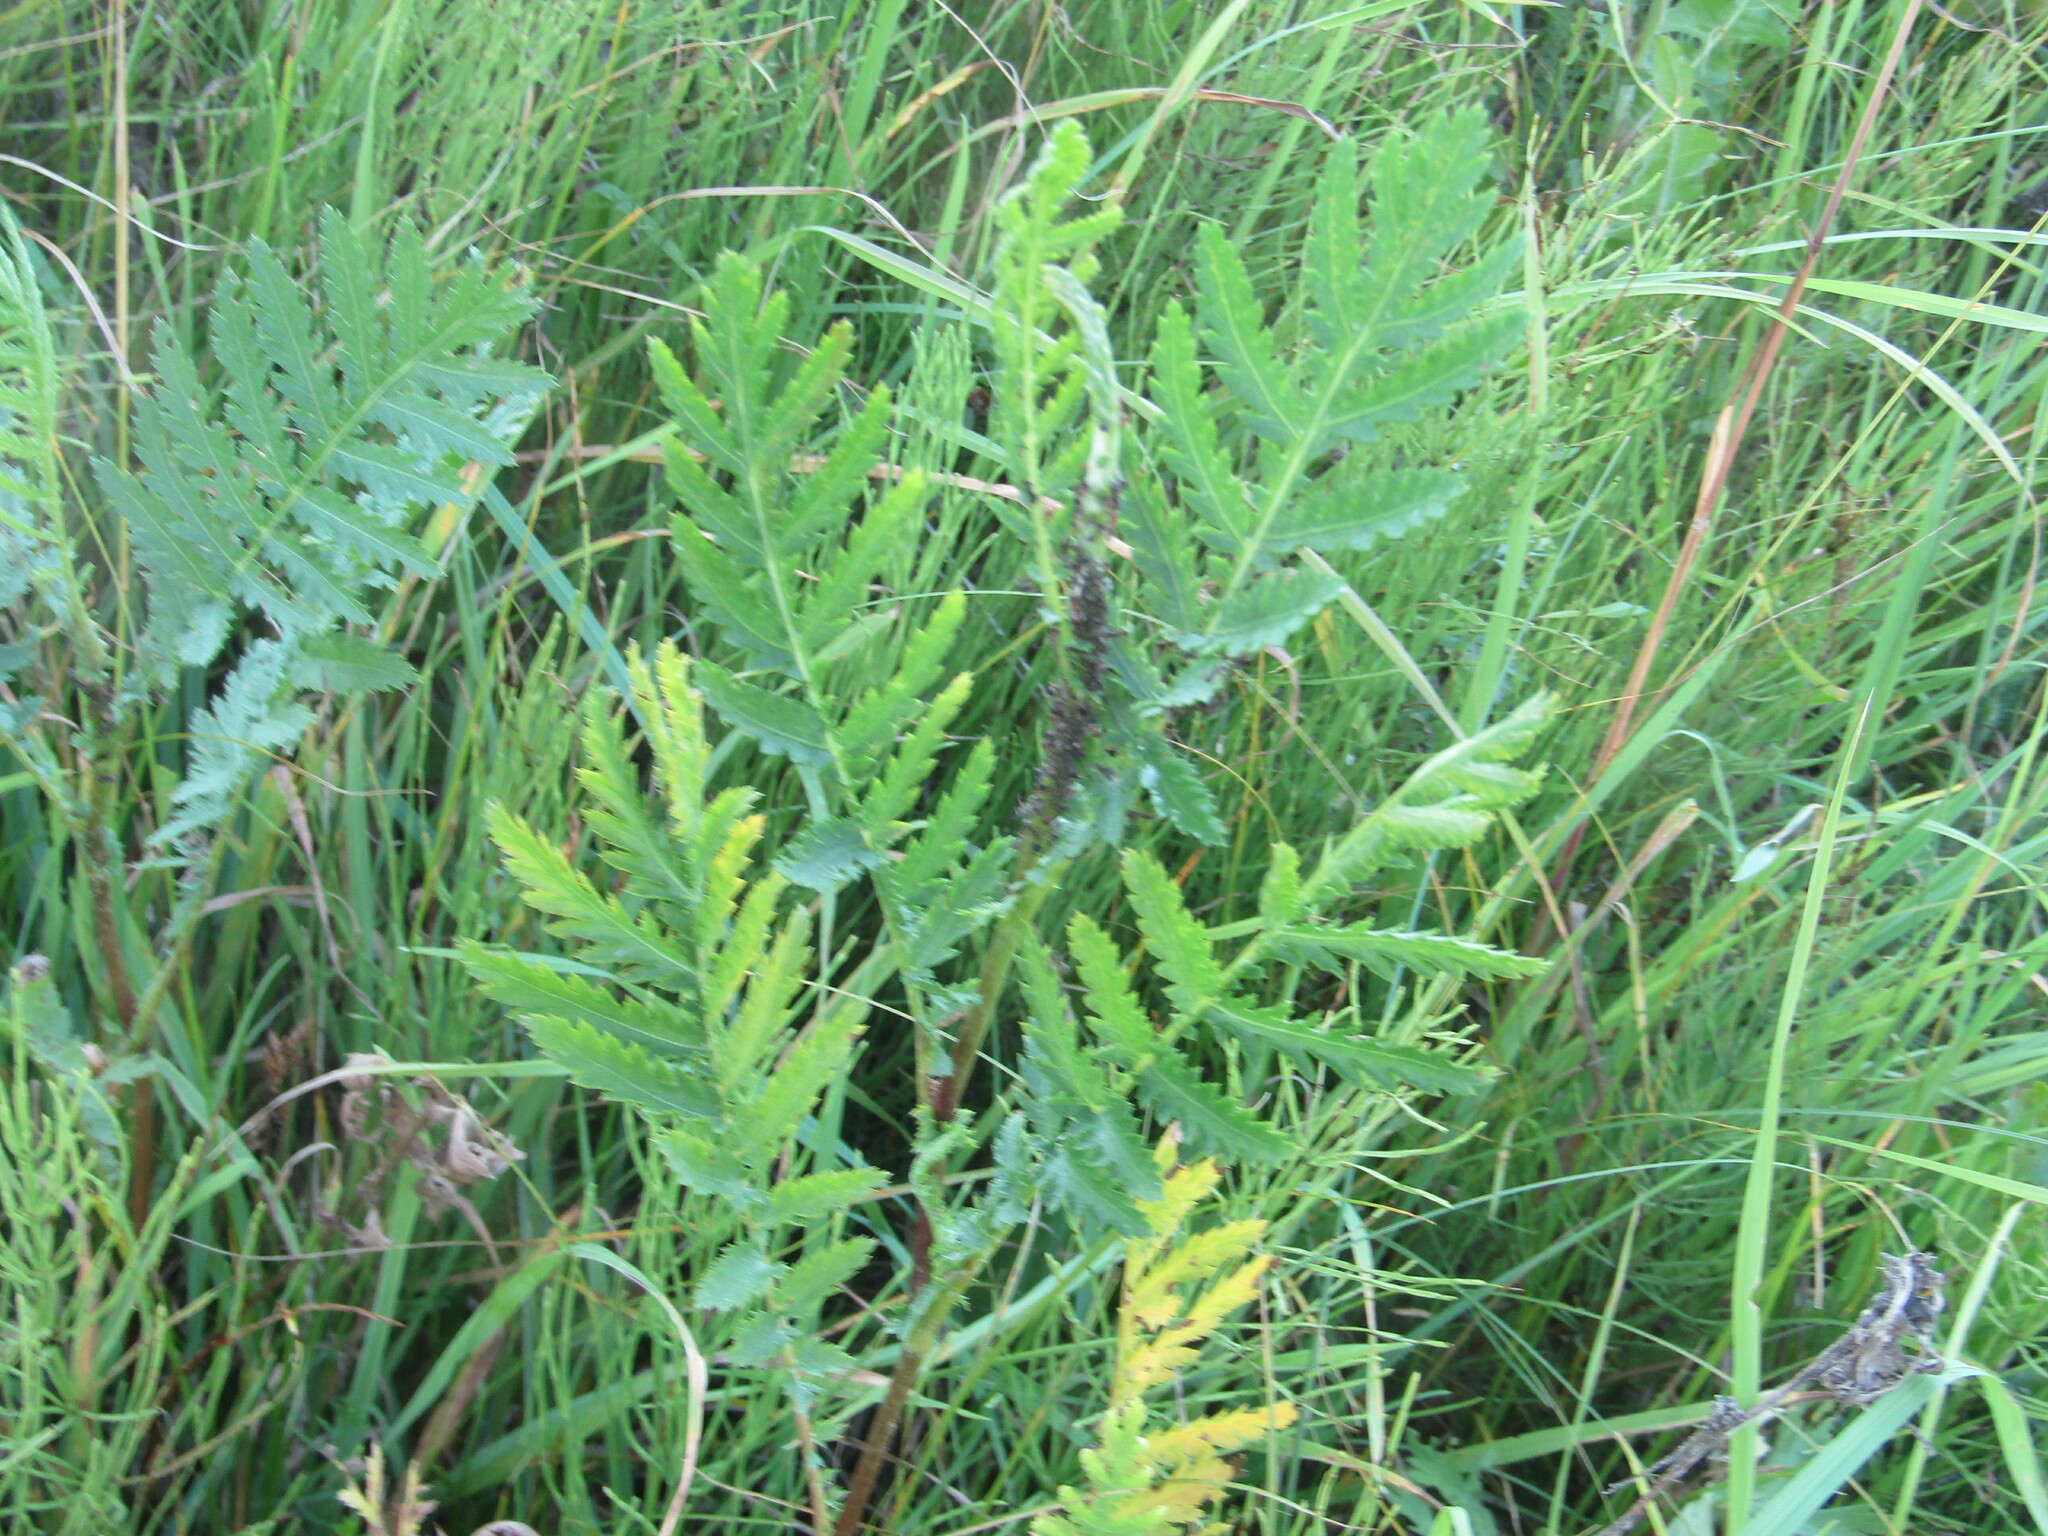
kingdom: Plantae
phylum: Tracheophyta
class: Magnoliopsida
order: Asterales
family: Asteraceae
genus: Tanacetum
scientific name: Tanacetum vulgare
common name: Common tansy
